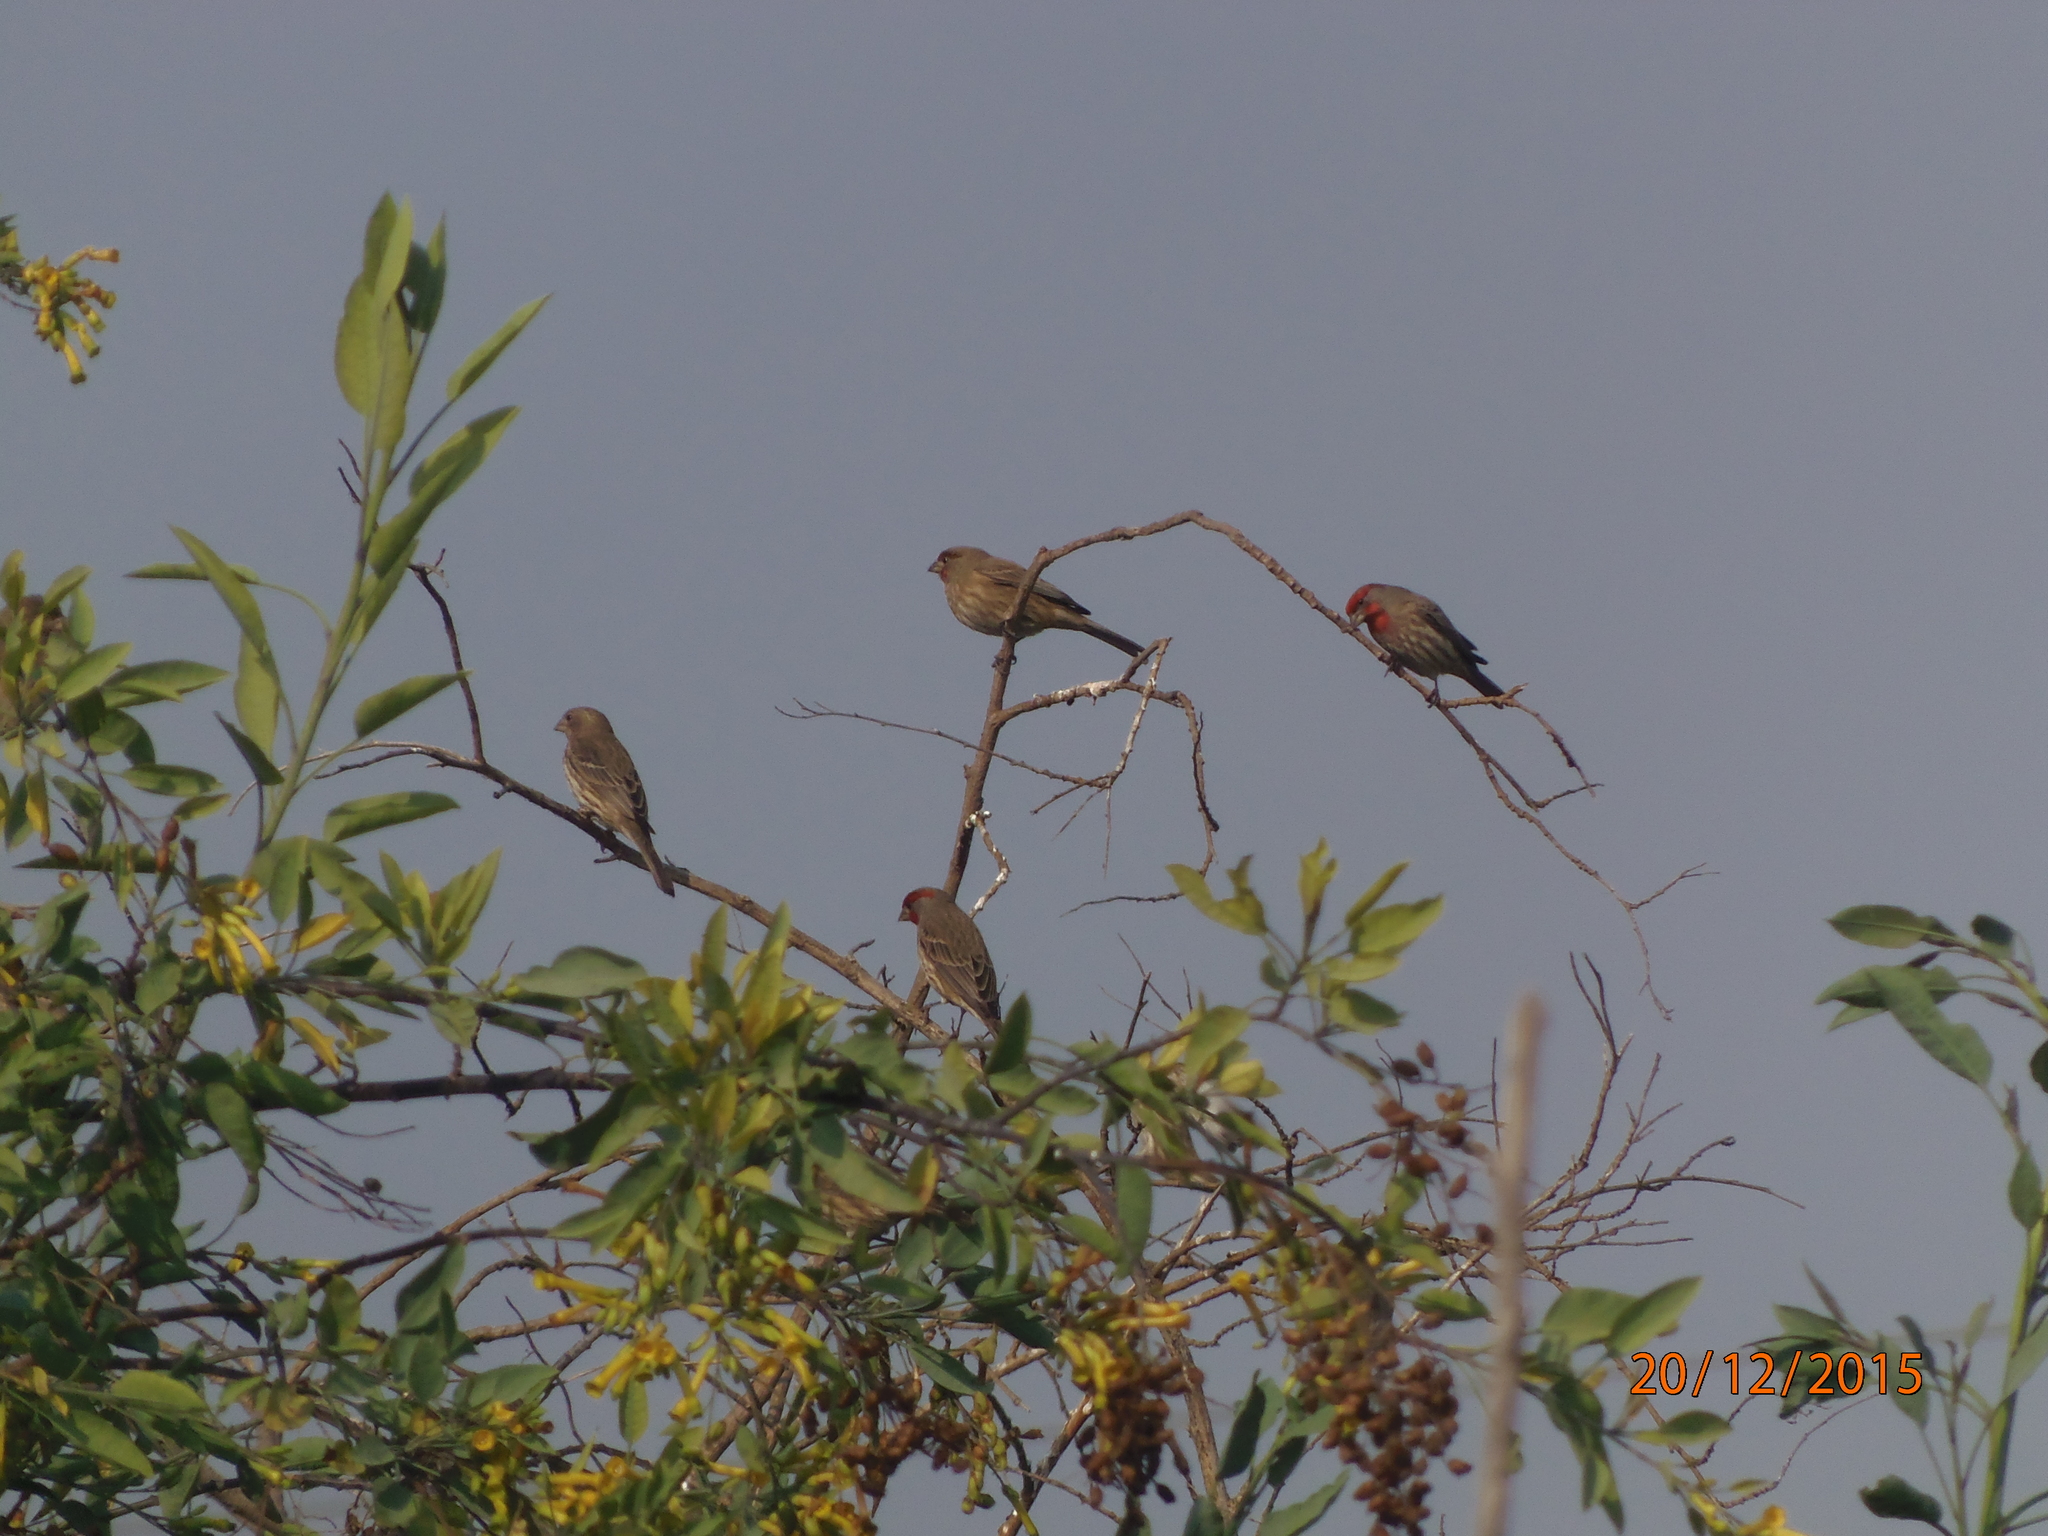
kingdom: Animalia
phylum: Chordata
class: Aves
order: Passeriformes
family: Fringillidae
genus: Haemorhous
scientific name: Haemorhous mexicanus
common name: House finch
